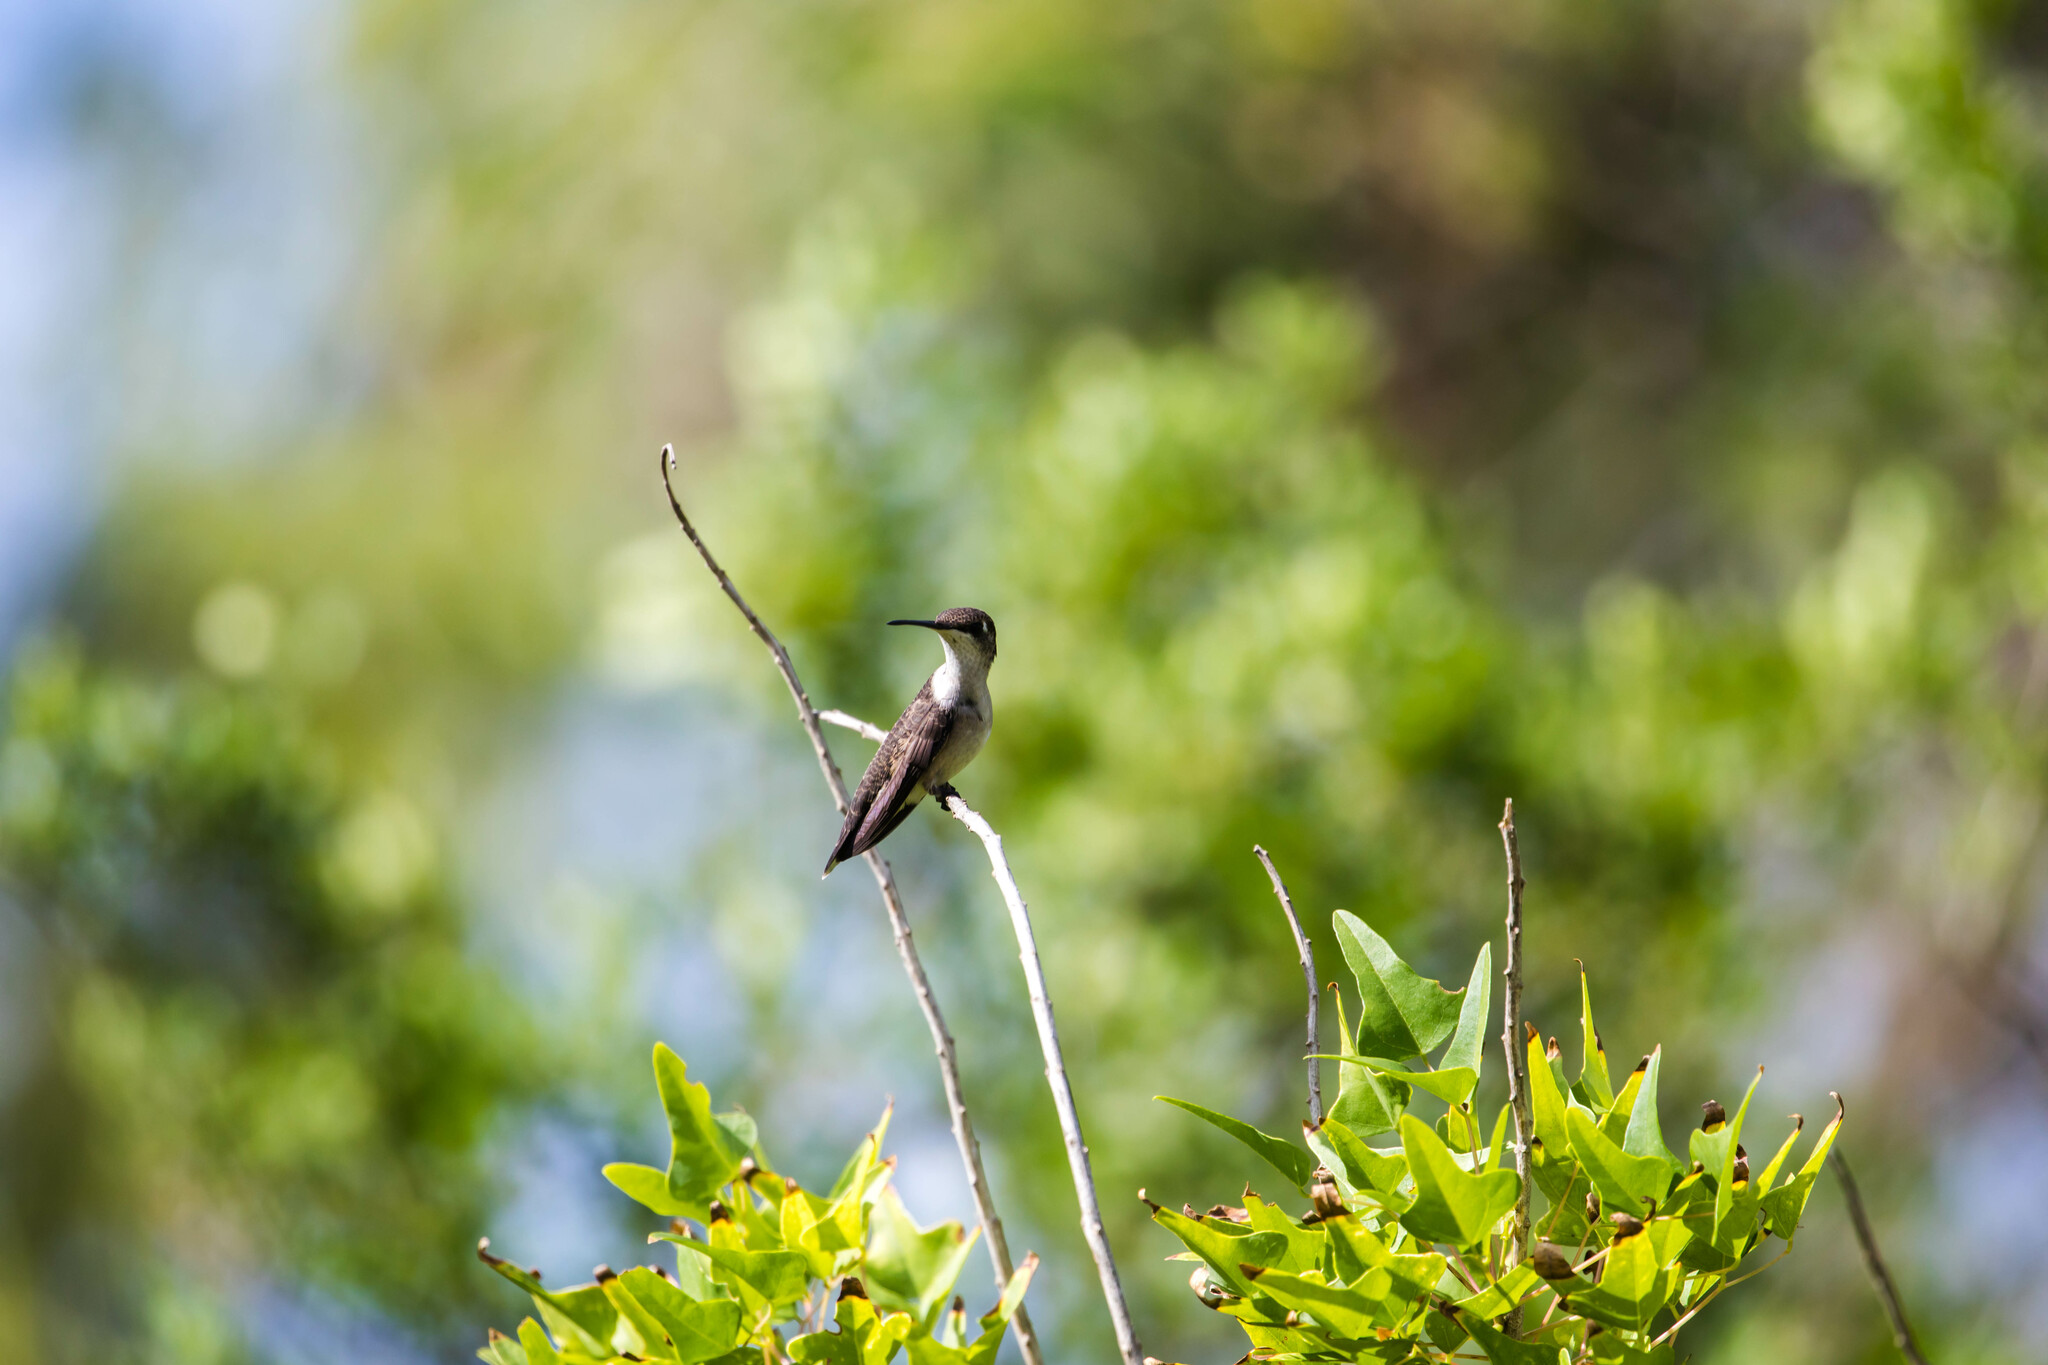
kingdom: Animalia
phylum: Chordata
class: Aves
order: Apodiformes
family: Trochilidae
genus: Archilochus
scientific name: Archilochus colubris
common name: Ruby-throated hummingbird
